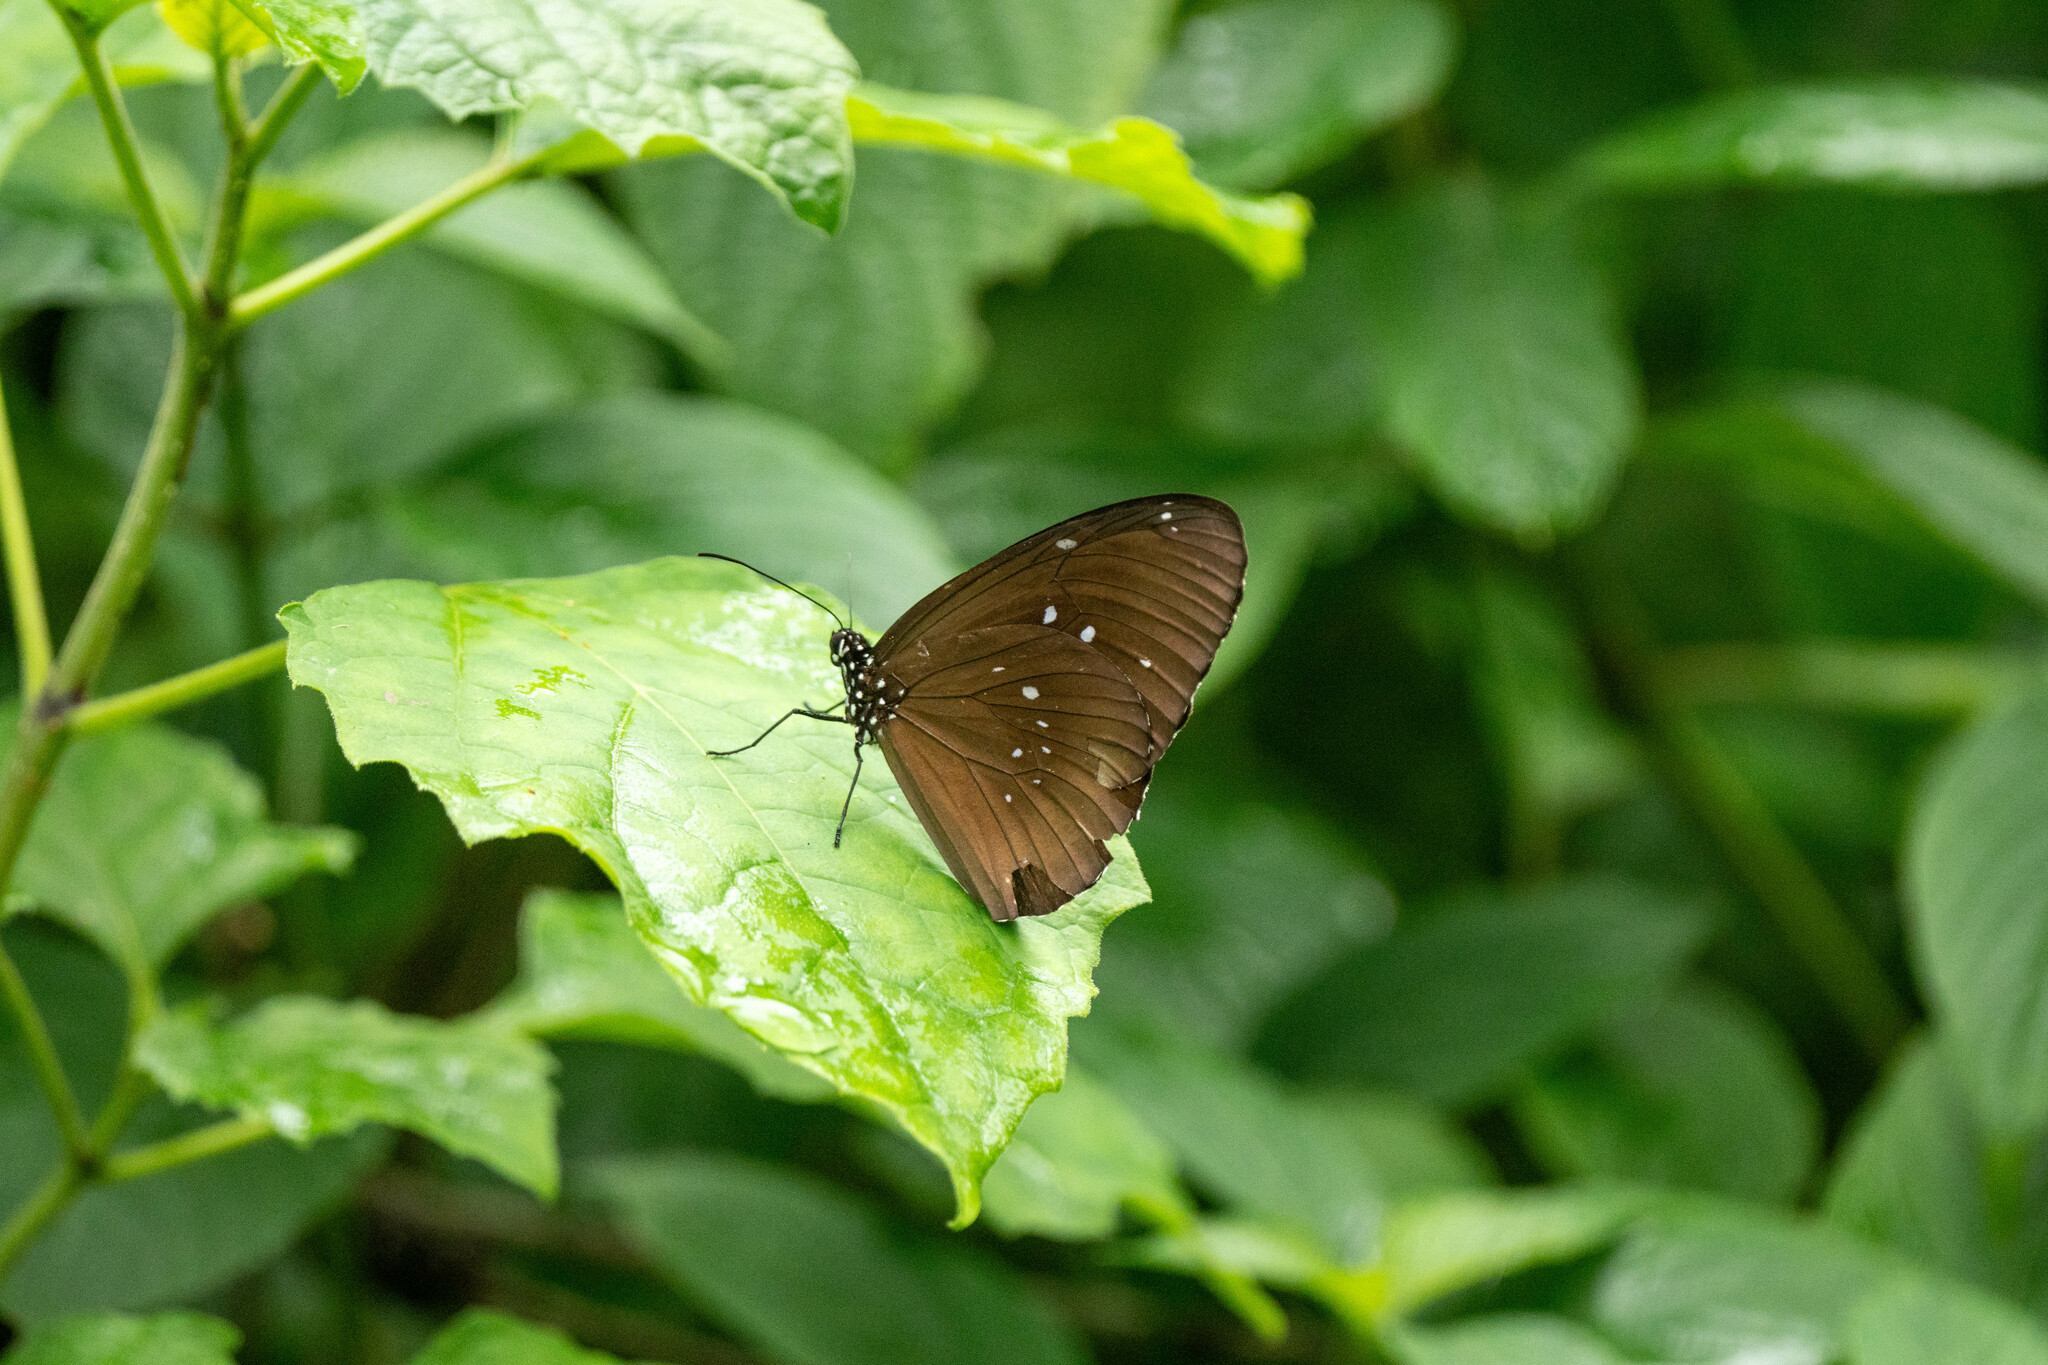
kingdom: Animalia
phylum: Arthropoda
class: Insecta
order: Lepidoptera
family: Nymphalidae
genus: Euploea
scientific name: Euploea core
